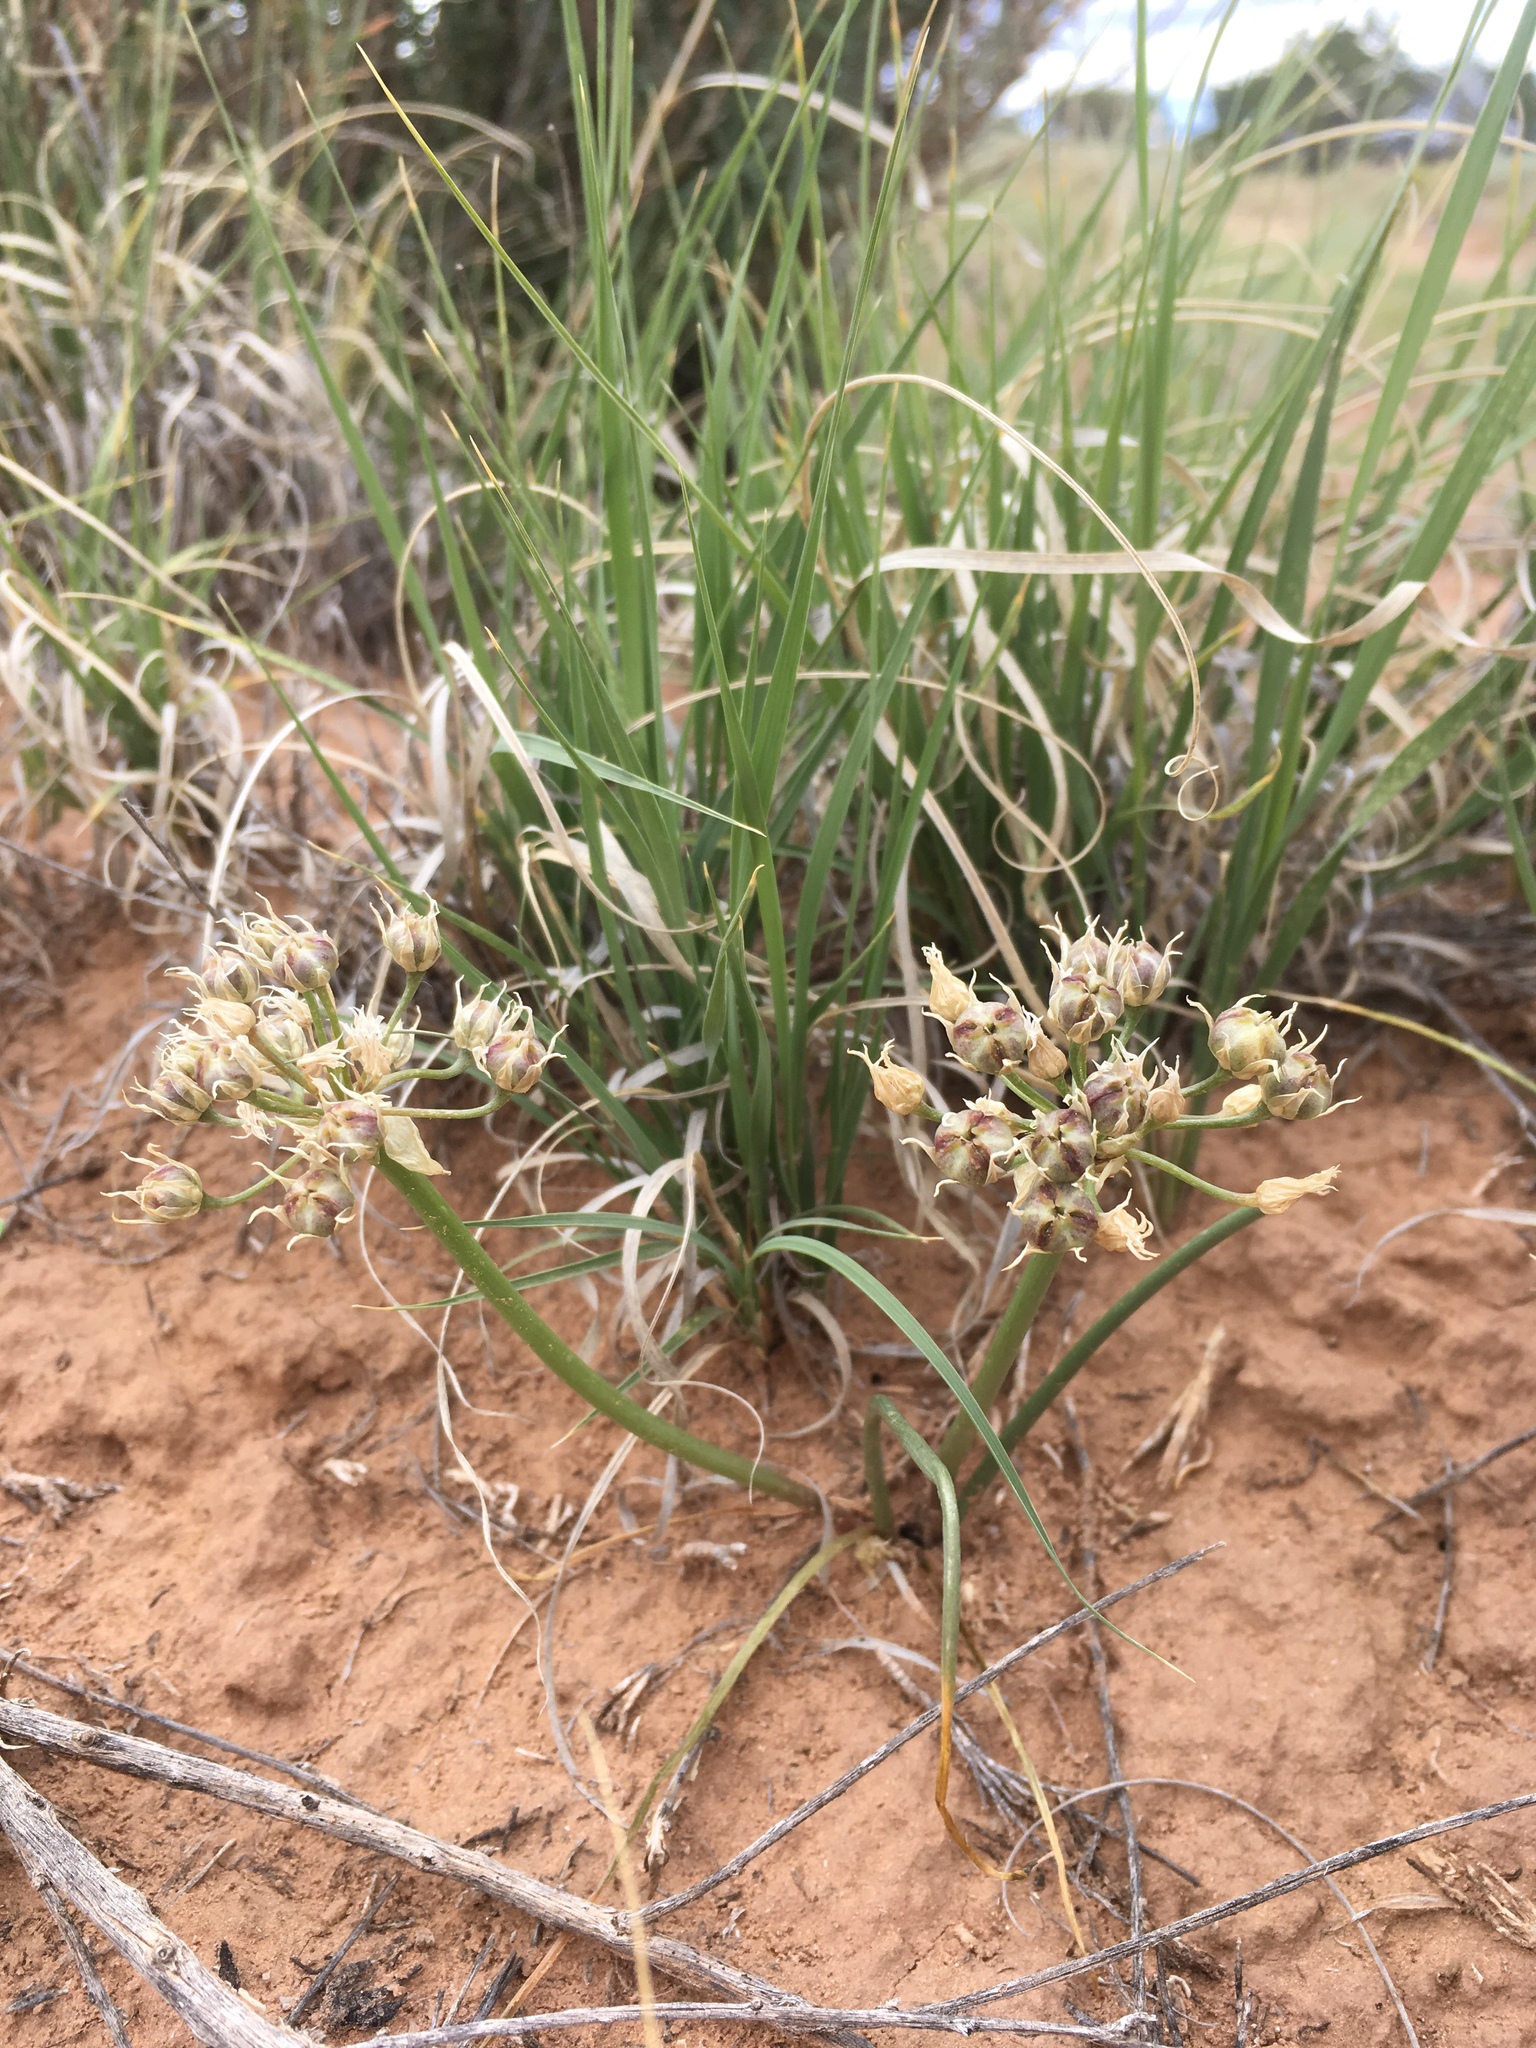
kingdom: Plantae
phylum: Tracheophyta
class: Liliopsida
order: Asparagales
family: Amaryllidaceae
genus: Allium
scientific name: Allium macropetalum
